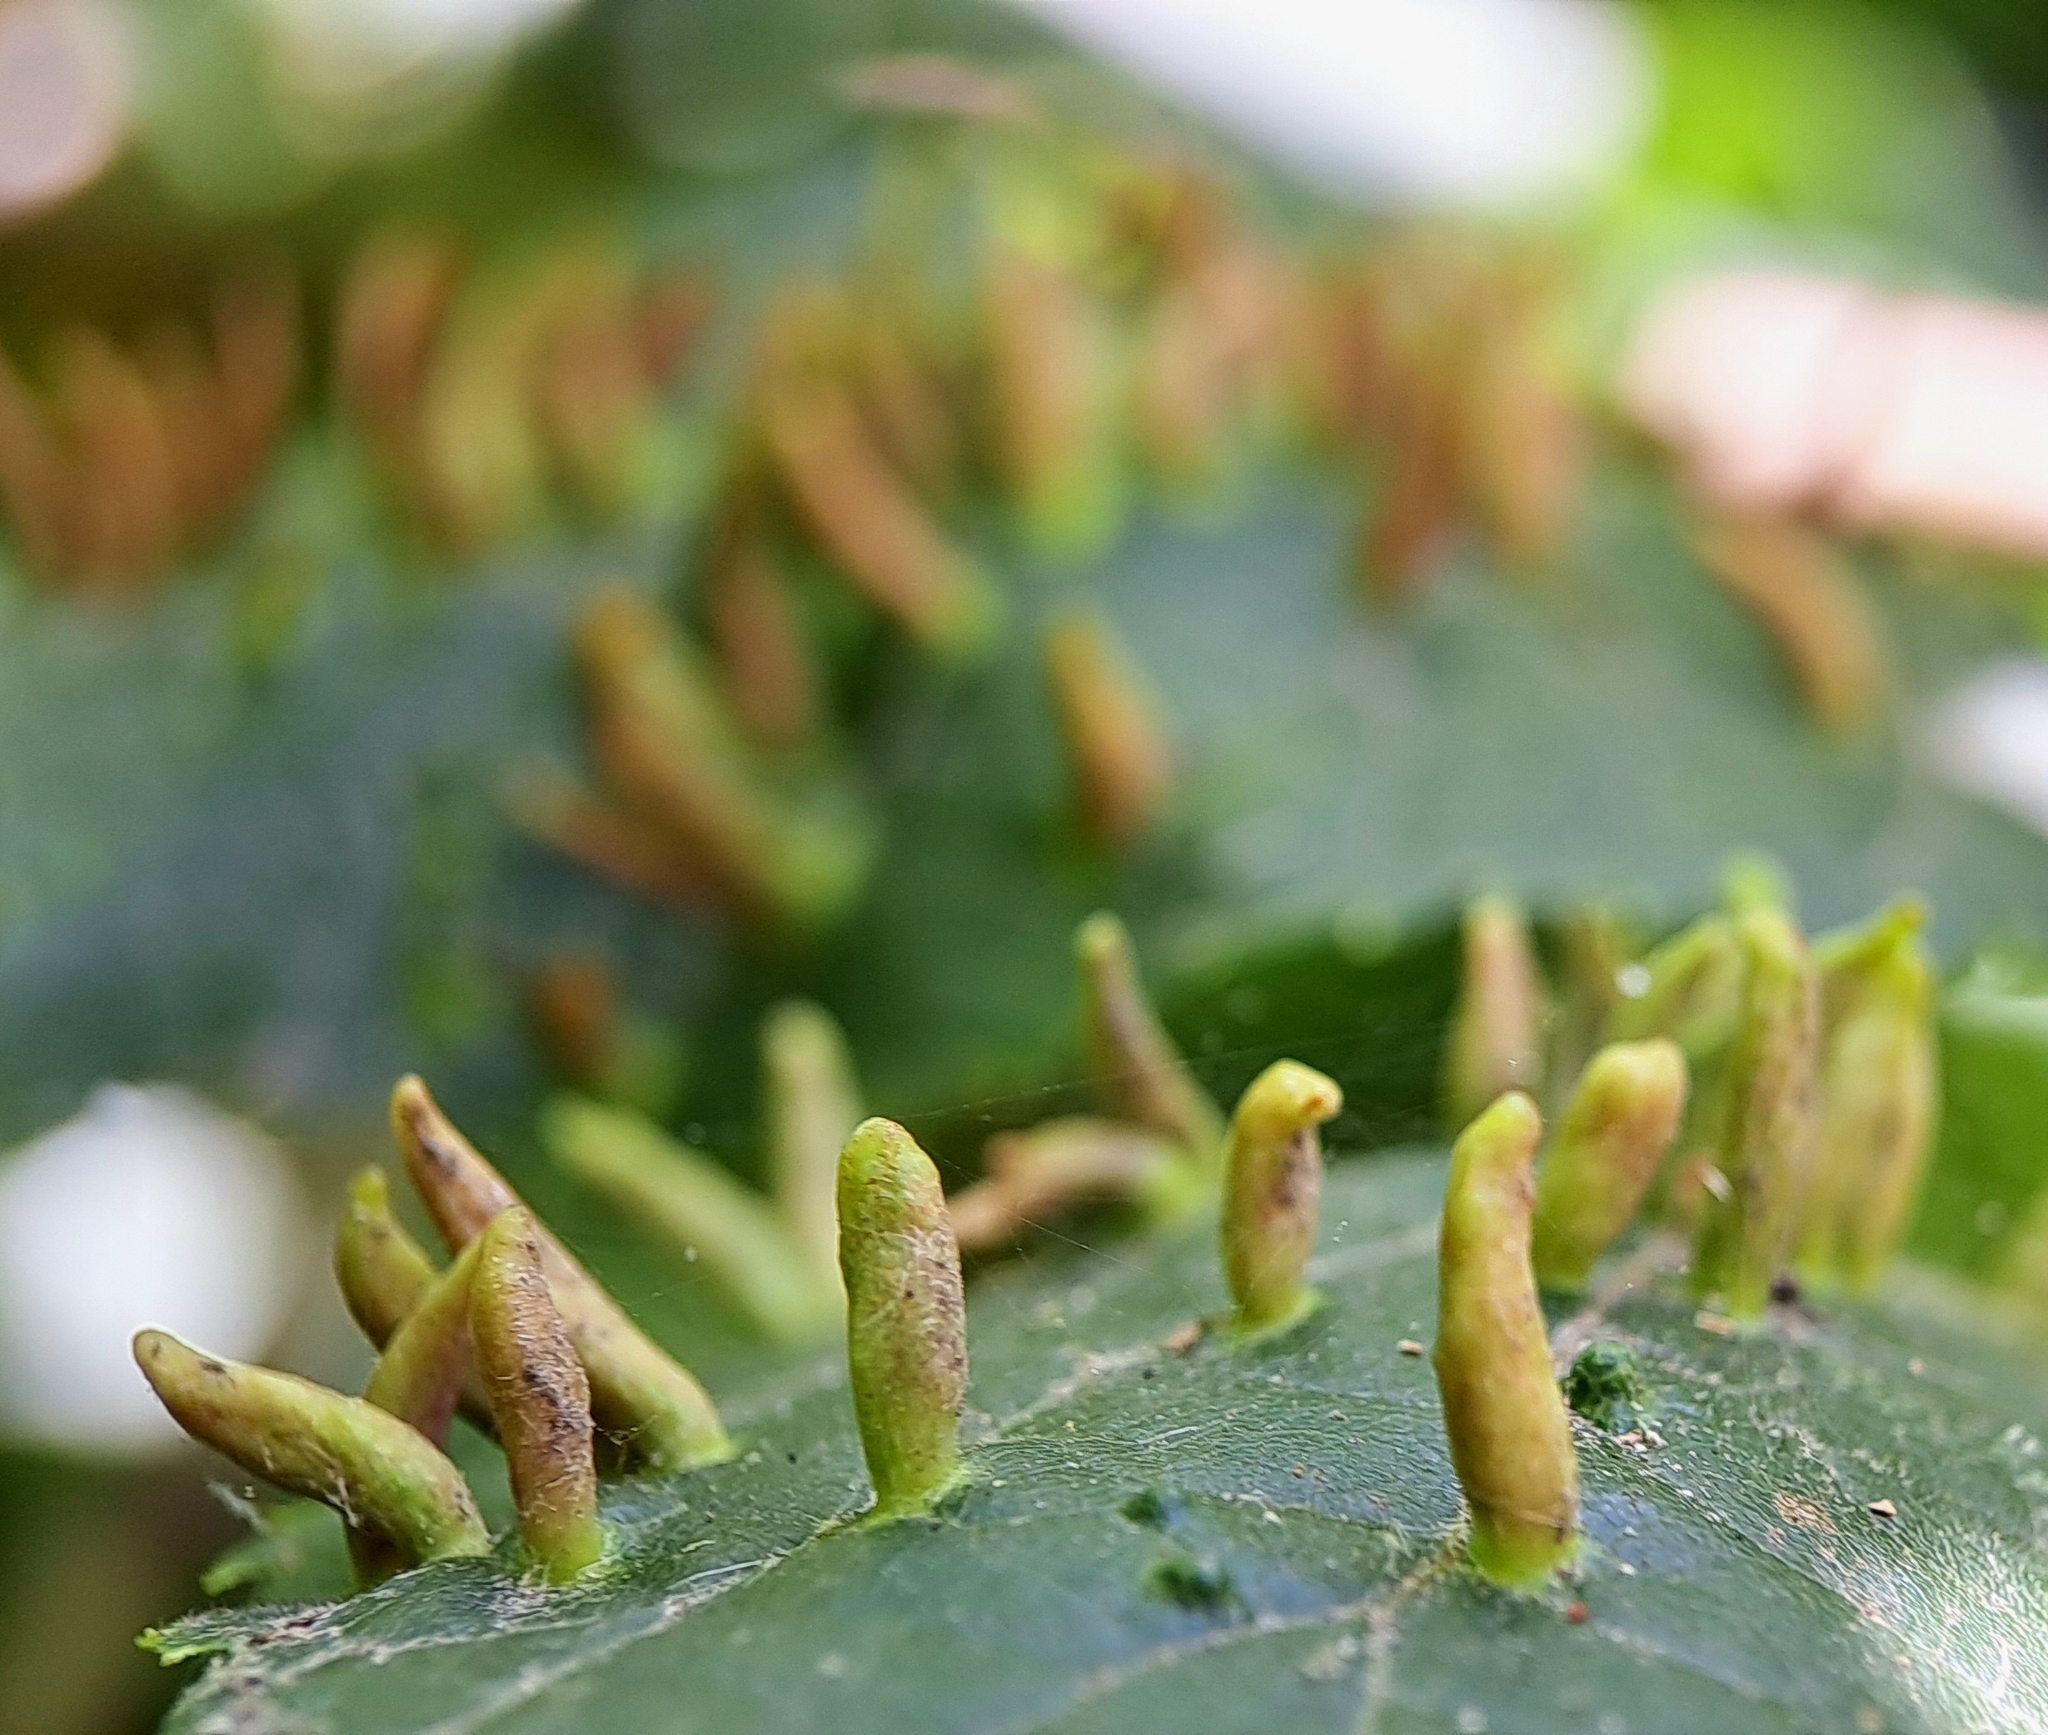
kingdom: Animalia
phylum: Arthropoda
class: Arachnida
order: Trombidiformes
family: Eriophyidae
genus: Eriophyes
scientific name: Eriophyes tiliae
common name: Red nail gall mite
